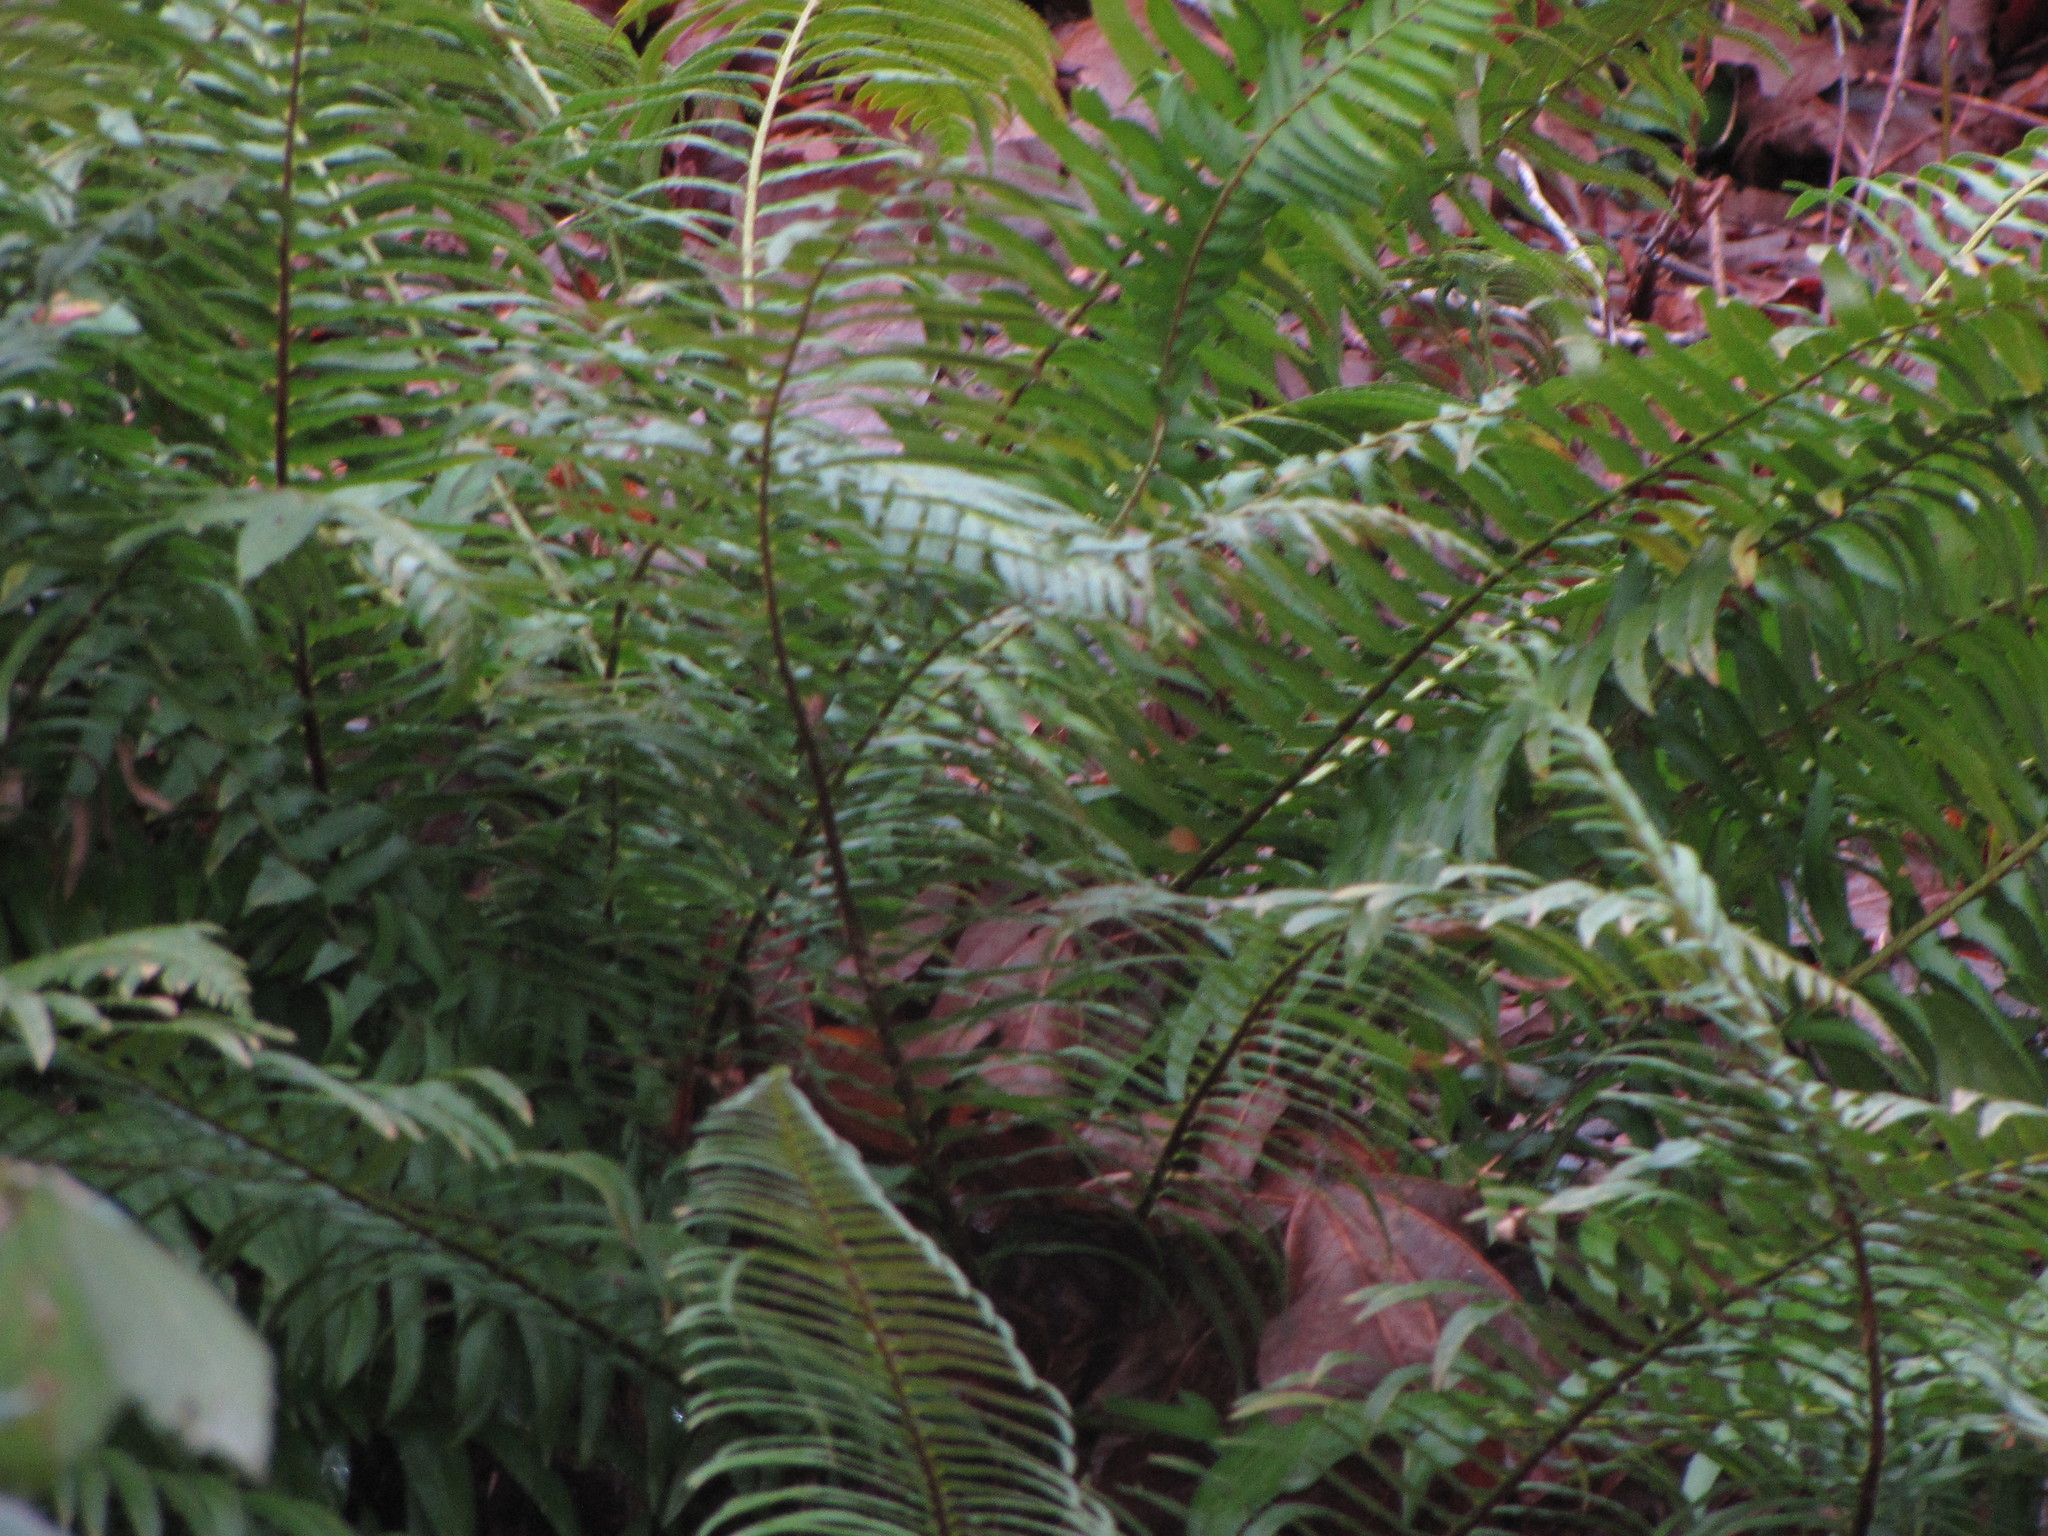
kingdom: Plantae
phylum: Tracheophyta
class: Polypodiopsida
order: Polypodiales
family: Dryopteridaceae
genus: Polystichum
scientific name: Polystichum munitum
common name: Western sword-fern
